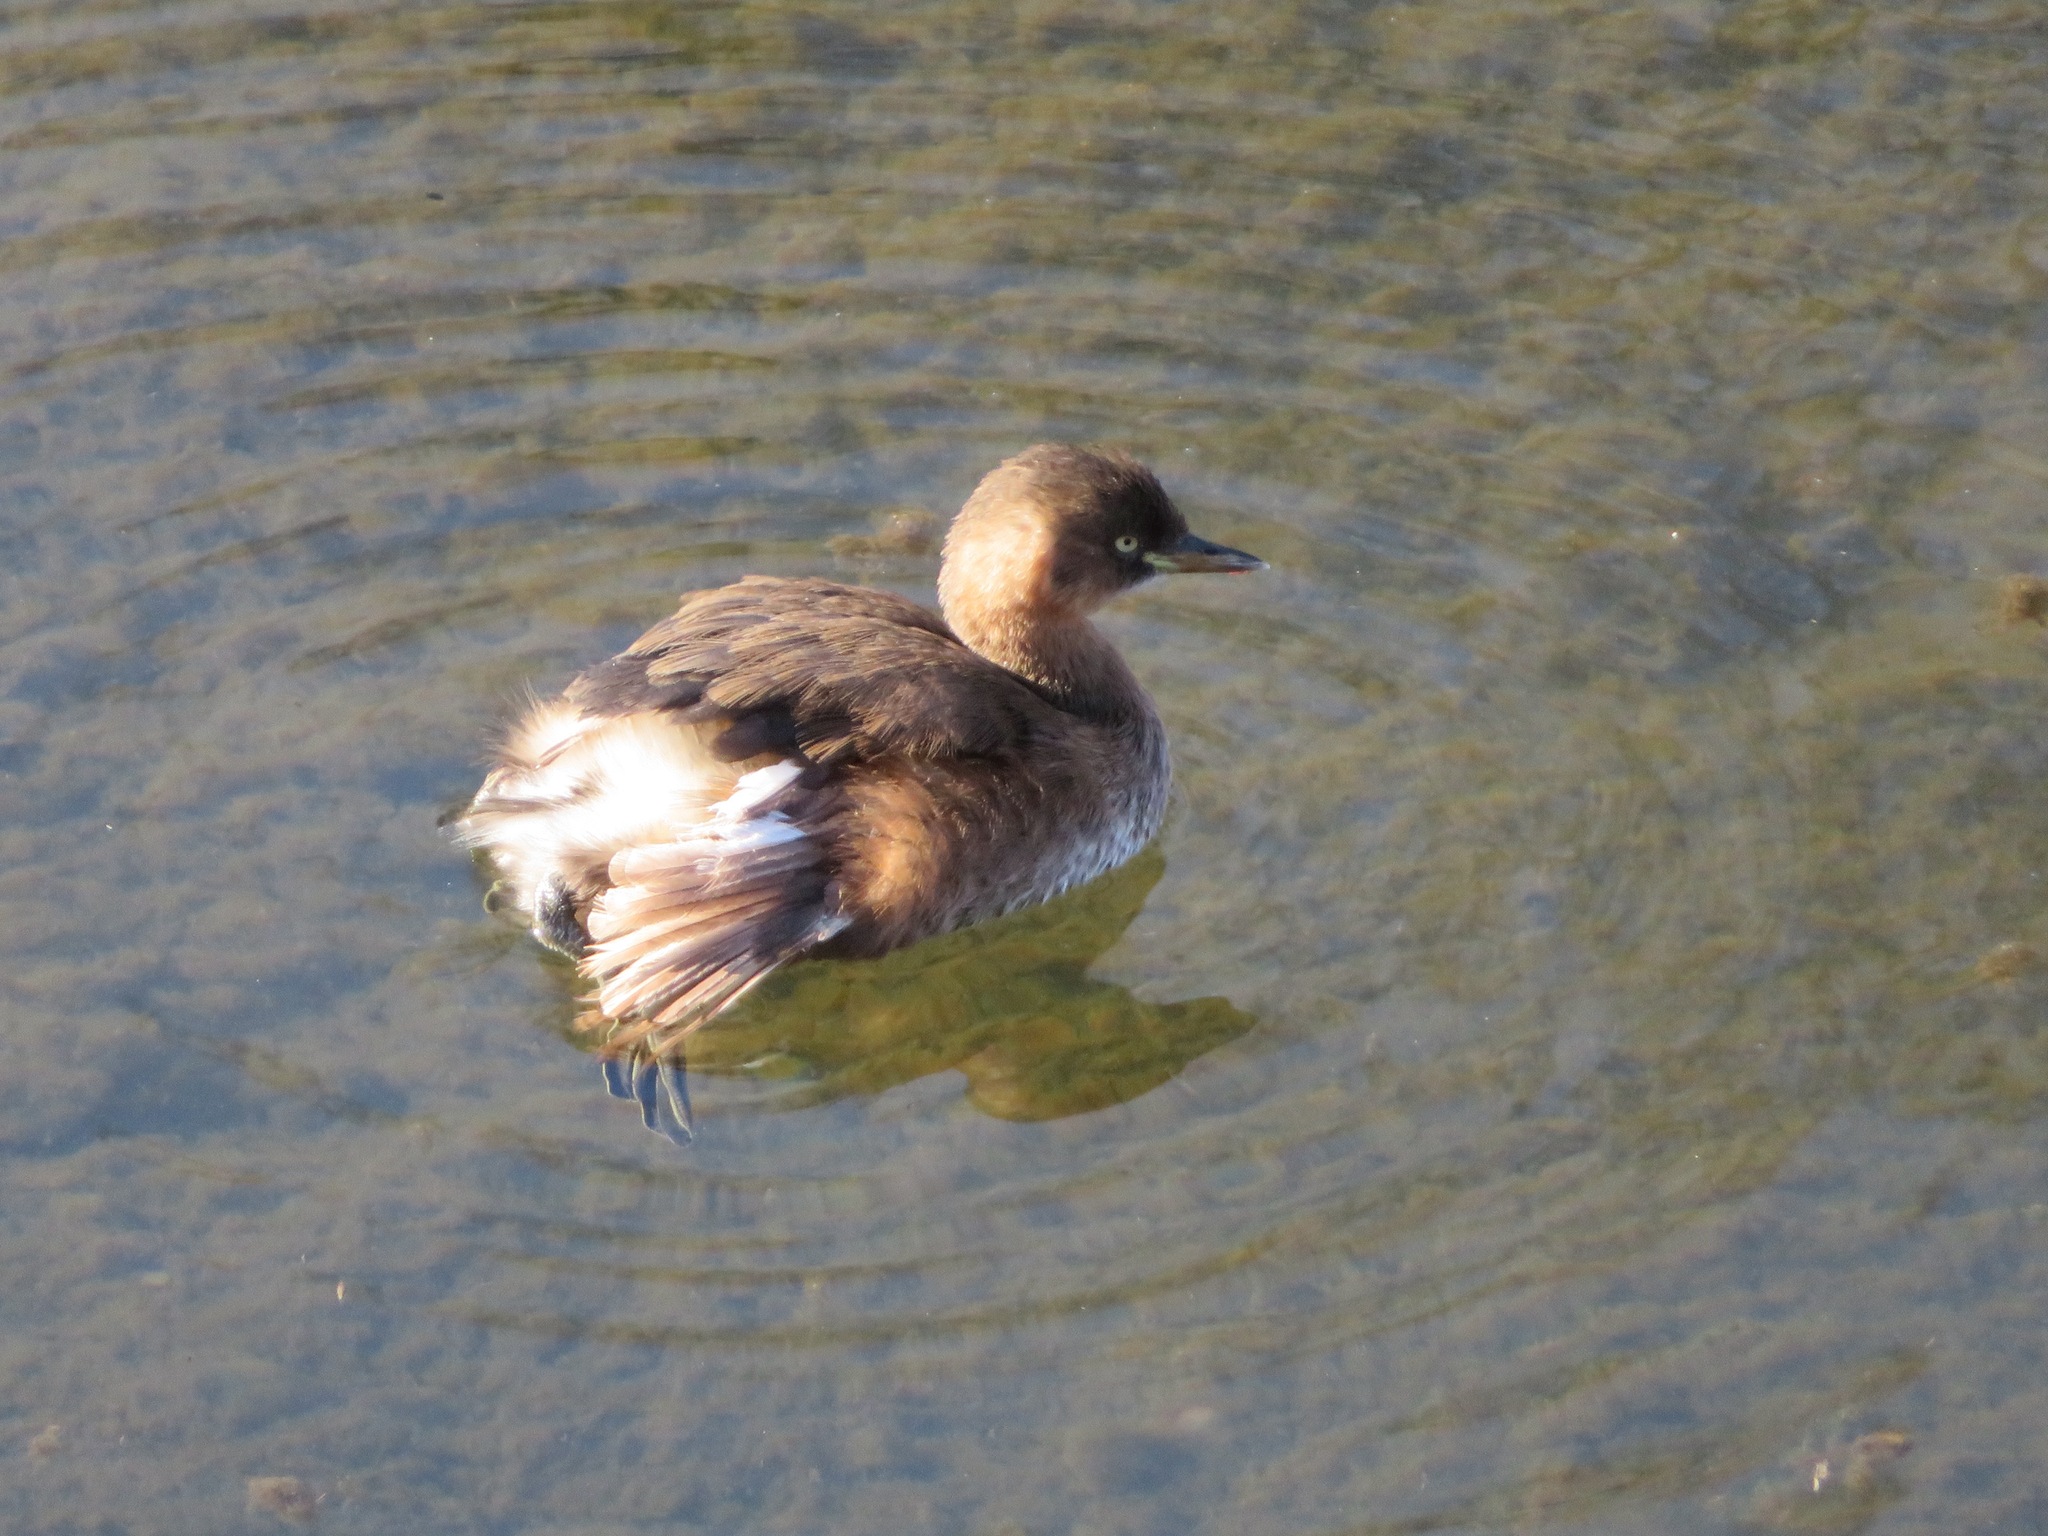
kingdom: Animalia
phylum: Chordata
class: Aves
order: Podicipediformes
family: Podicipedidae
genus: Tachybaptus
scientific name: Tachybaptus ruficollis
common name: Little grebe
